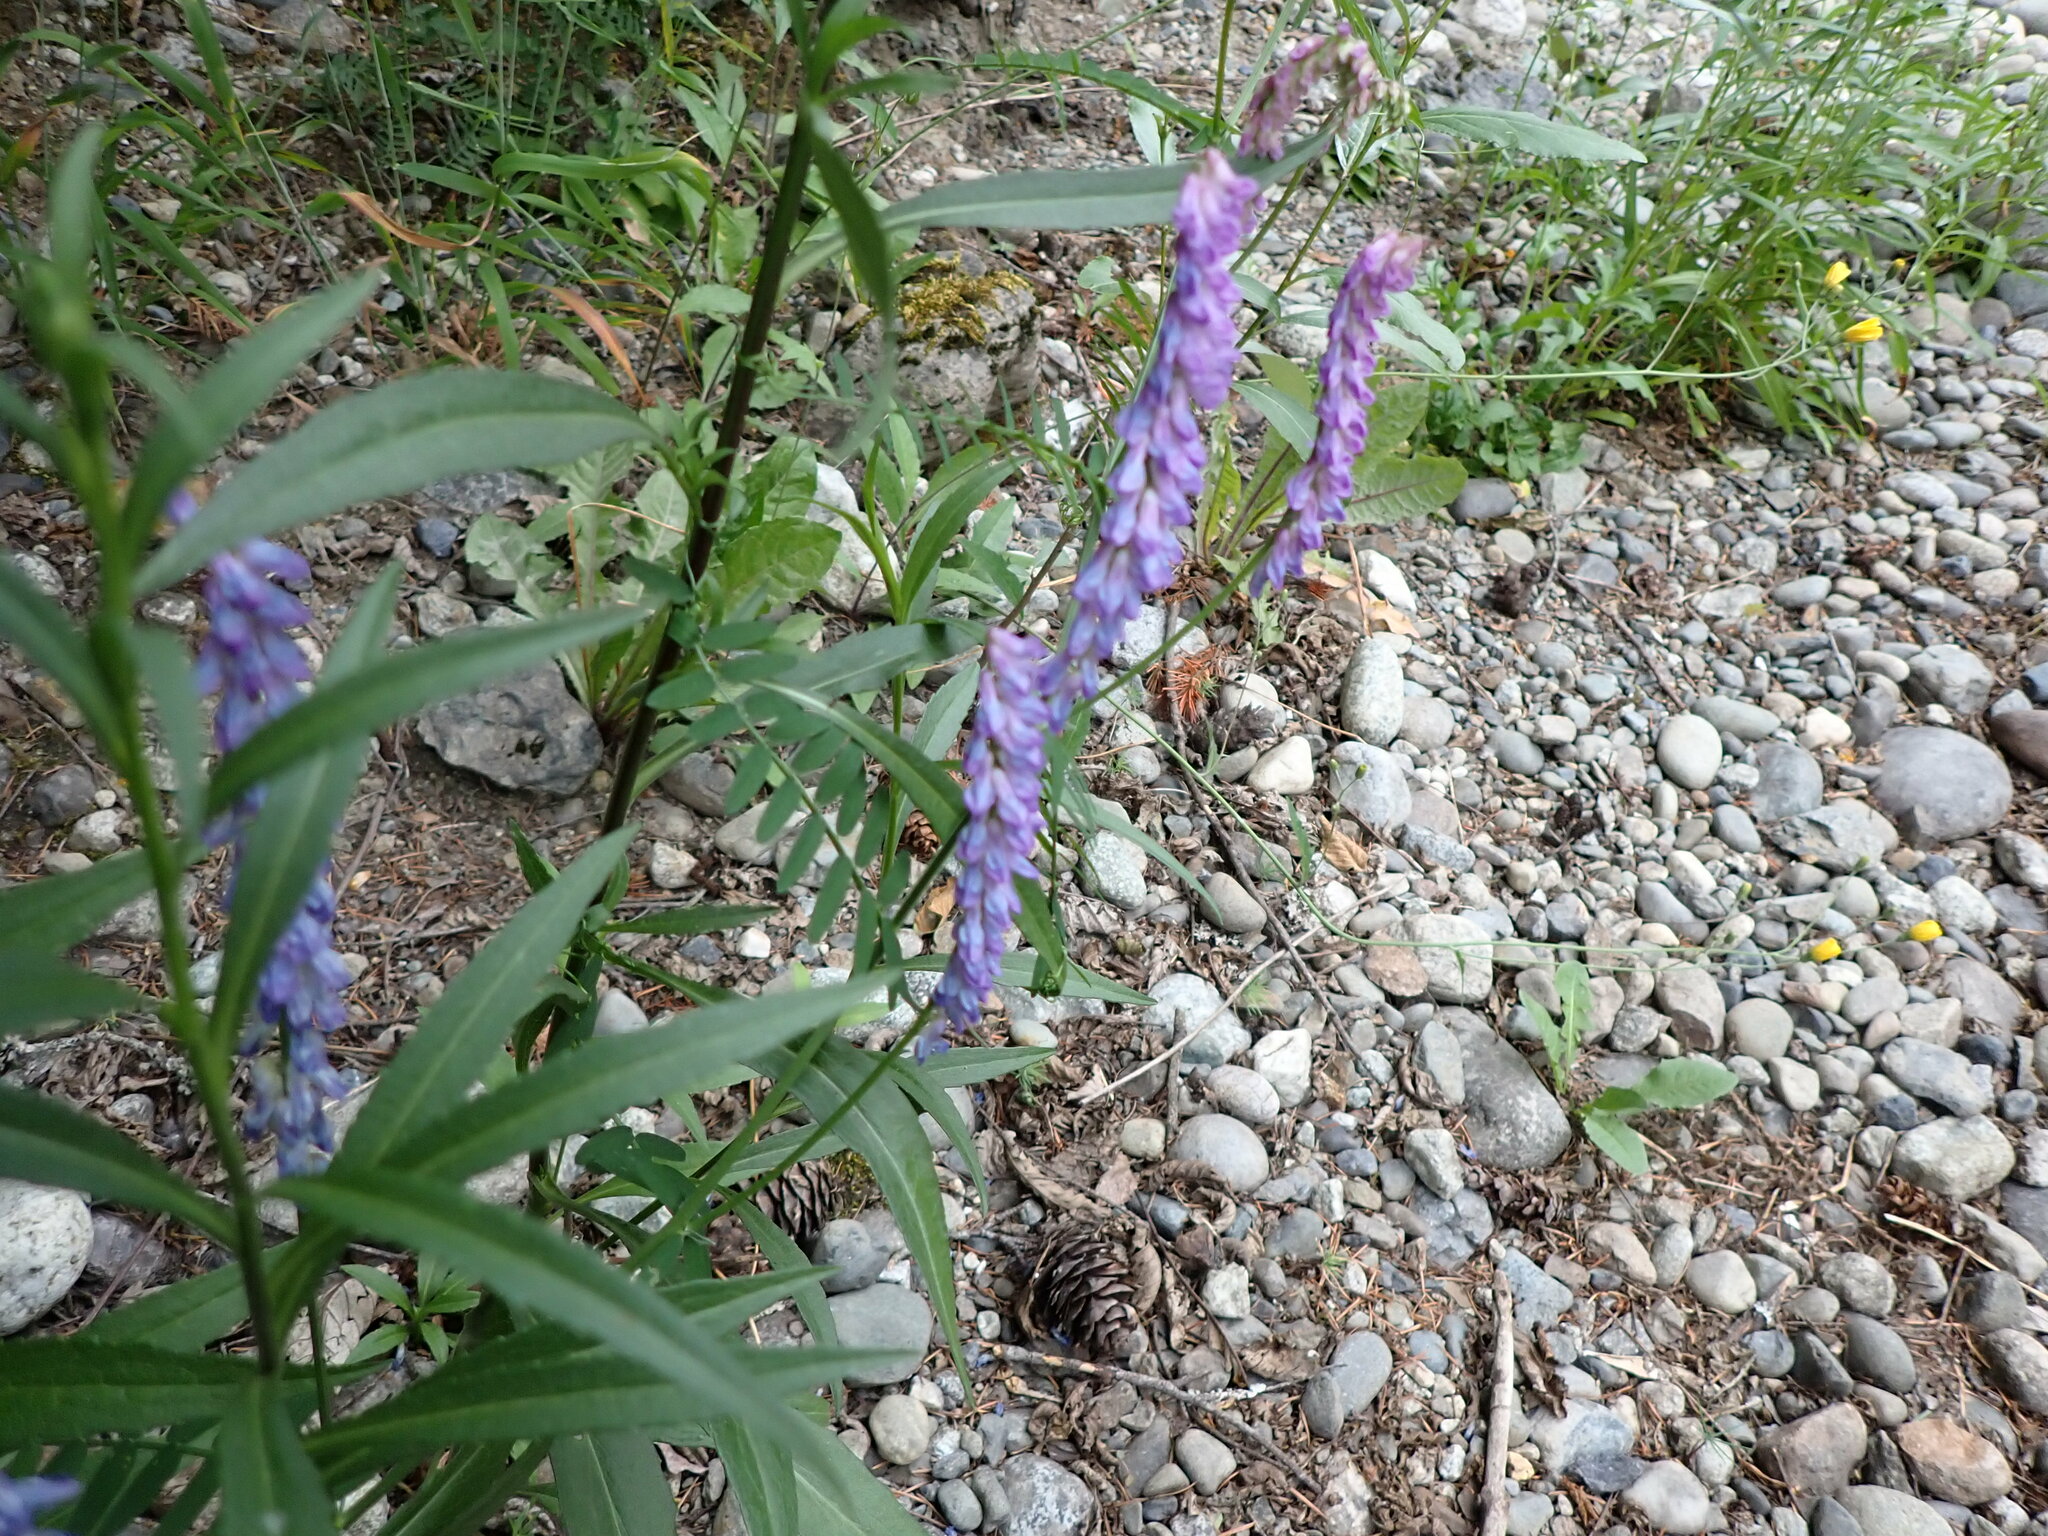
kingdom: Plantae
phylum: Tracheophyta
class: Magnoliopsida
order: Fabales
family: Fabaceae
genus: Vicia
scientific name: Vicia cracca
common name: Bird vetch
